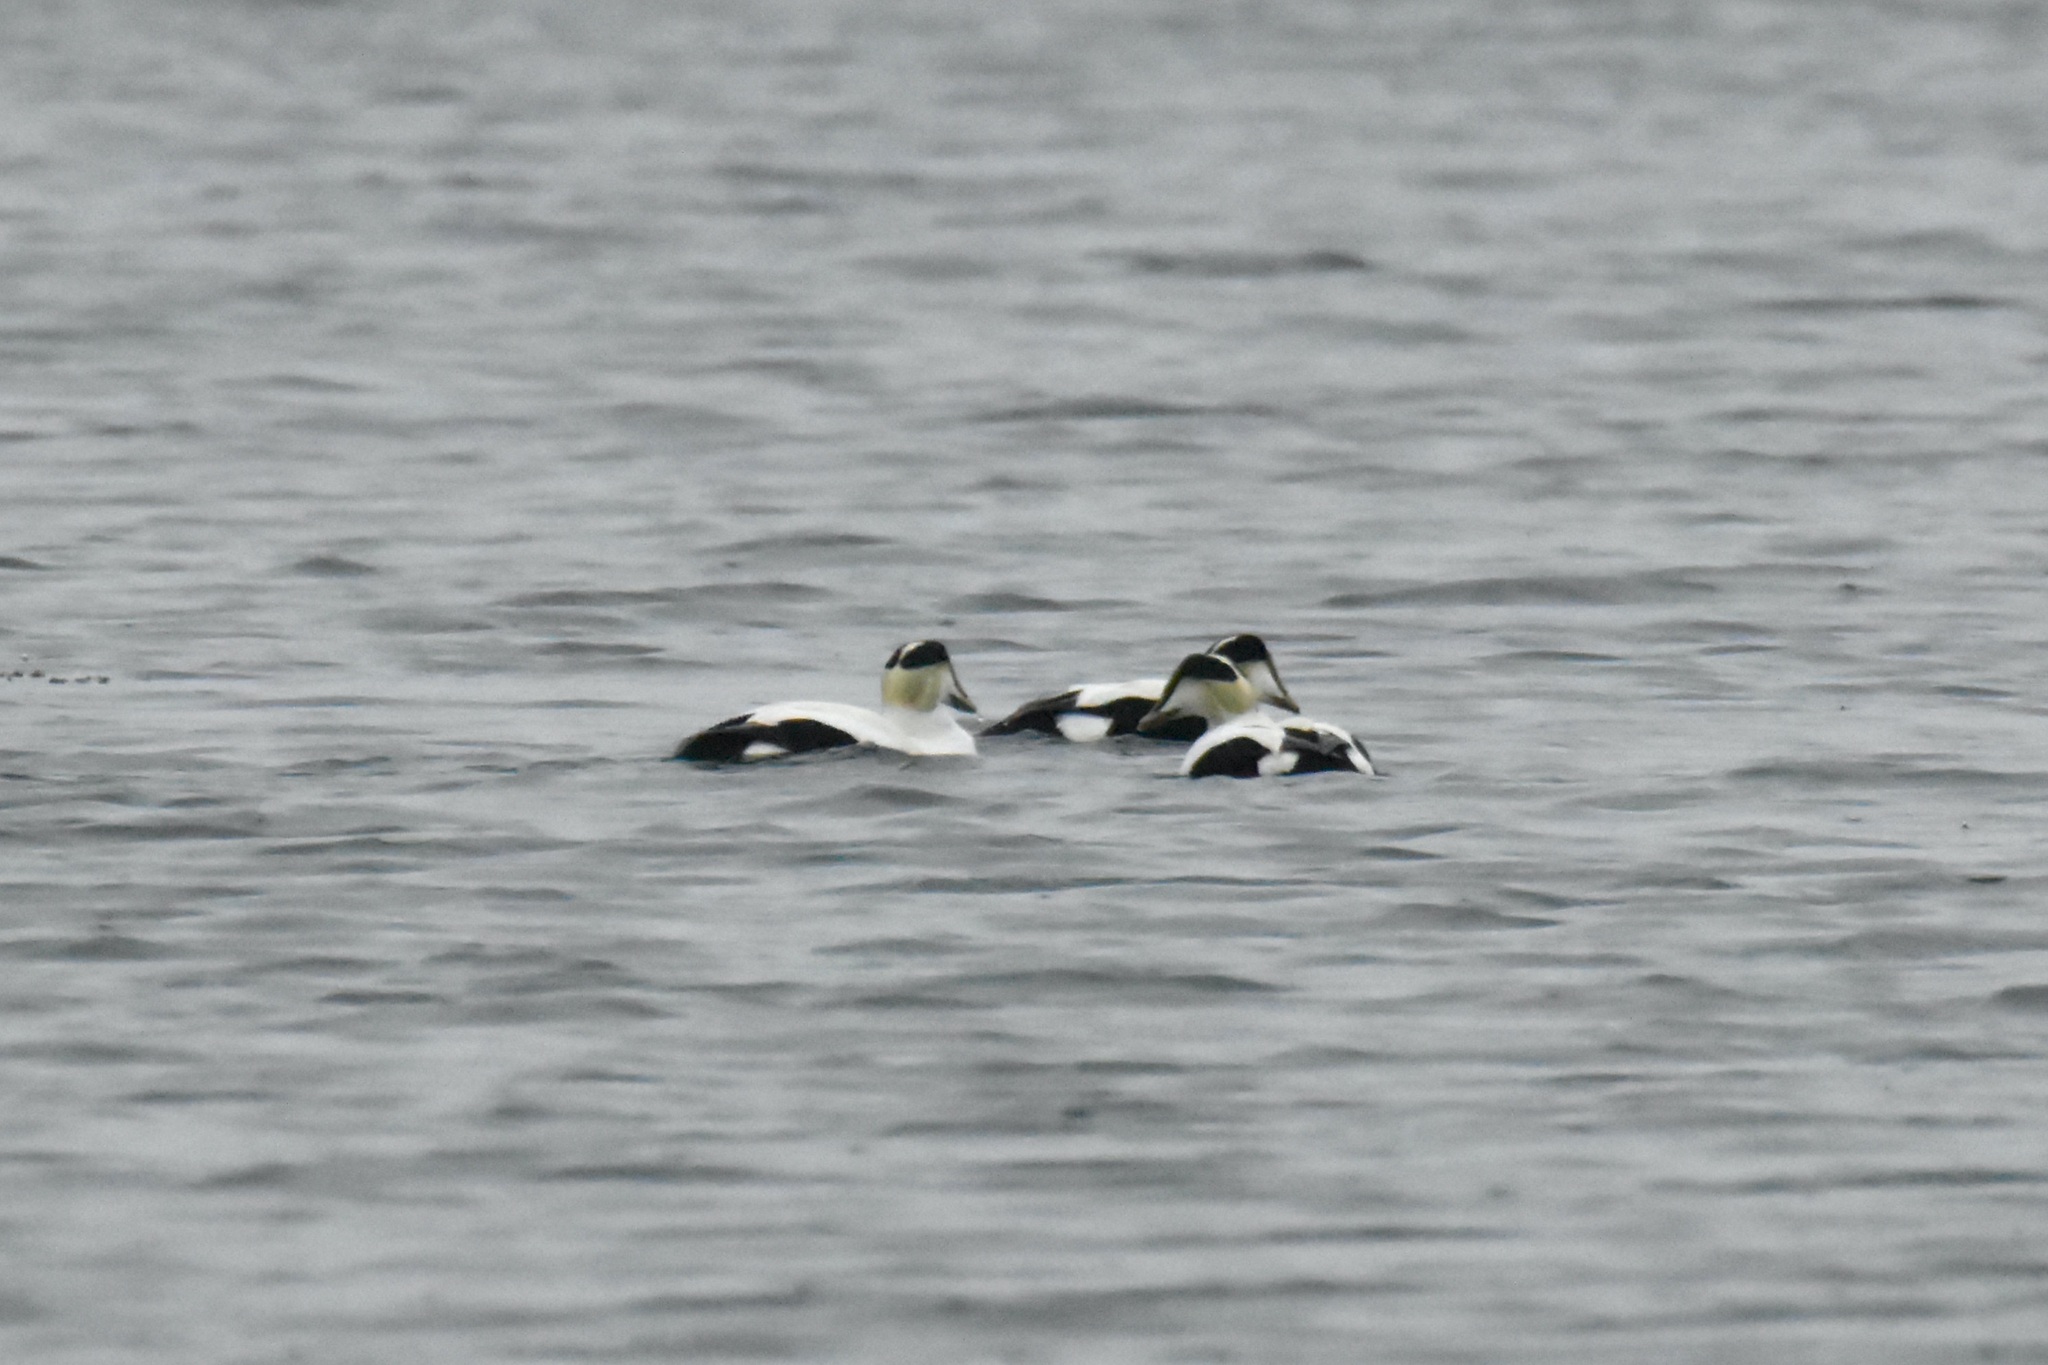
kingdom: Animalia
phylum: Chordata
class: Aves
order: Anseriformes
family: Anatidae
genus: Somateria
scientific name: Somateria mollissima
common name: Common eider
